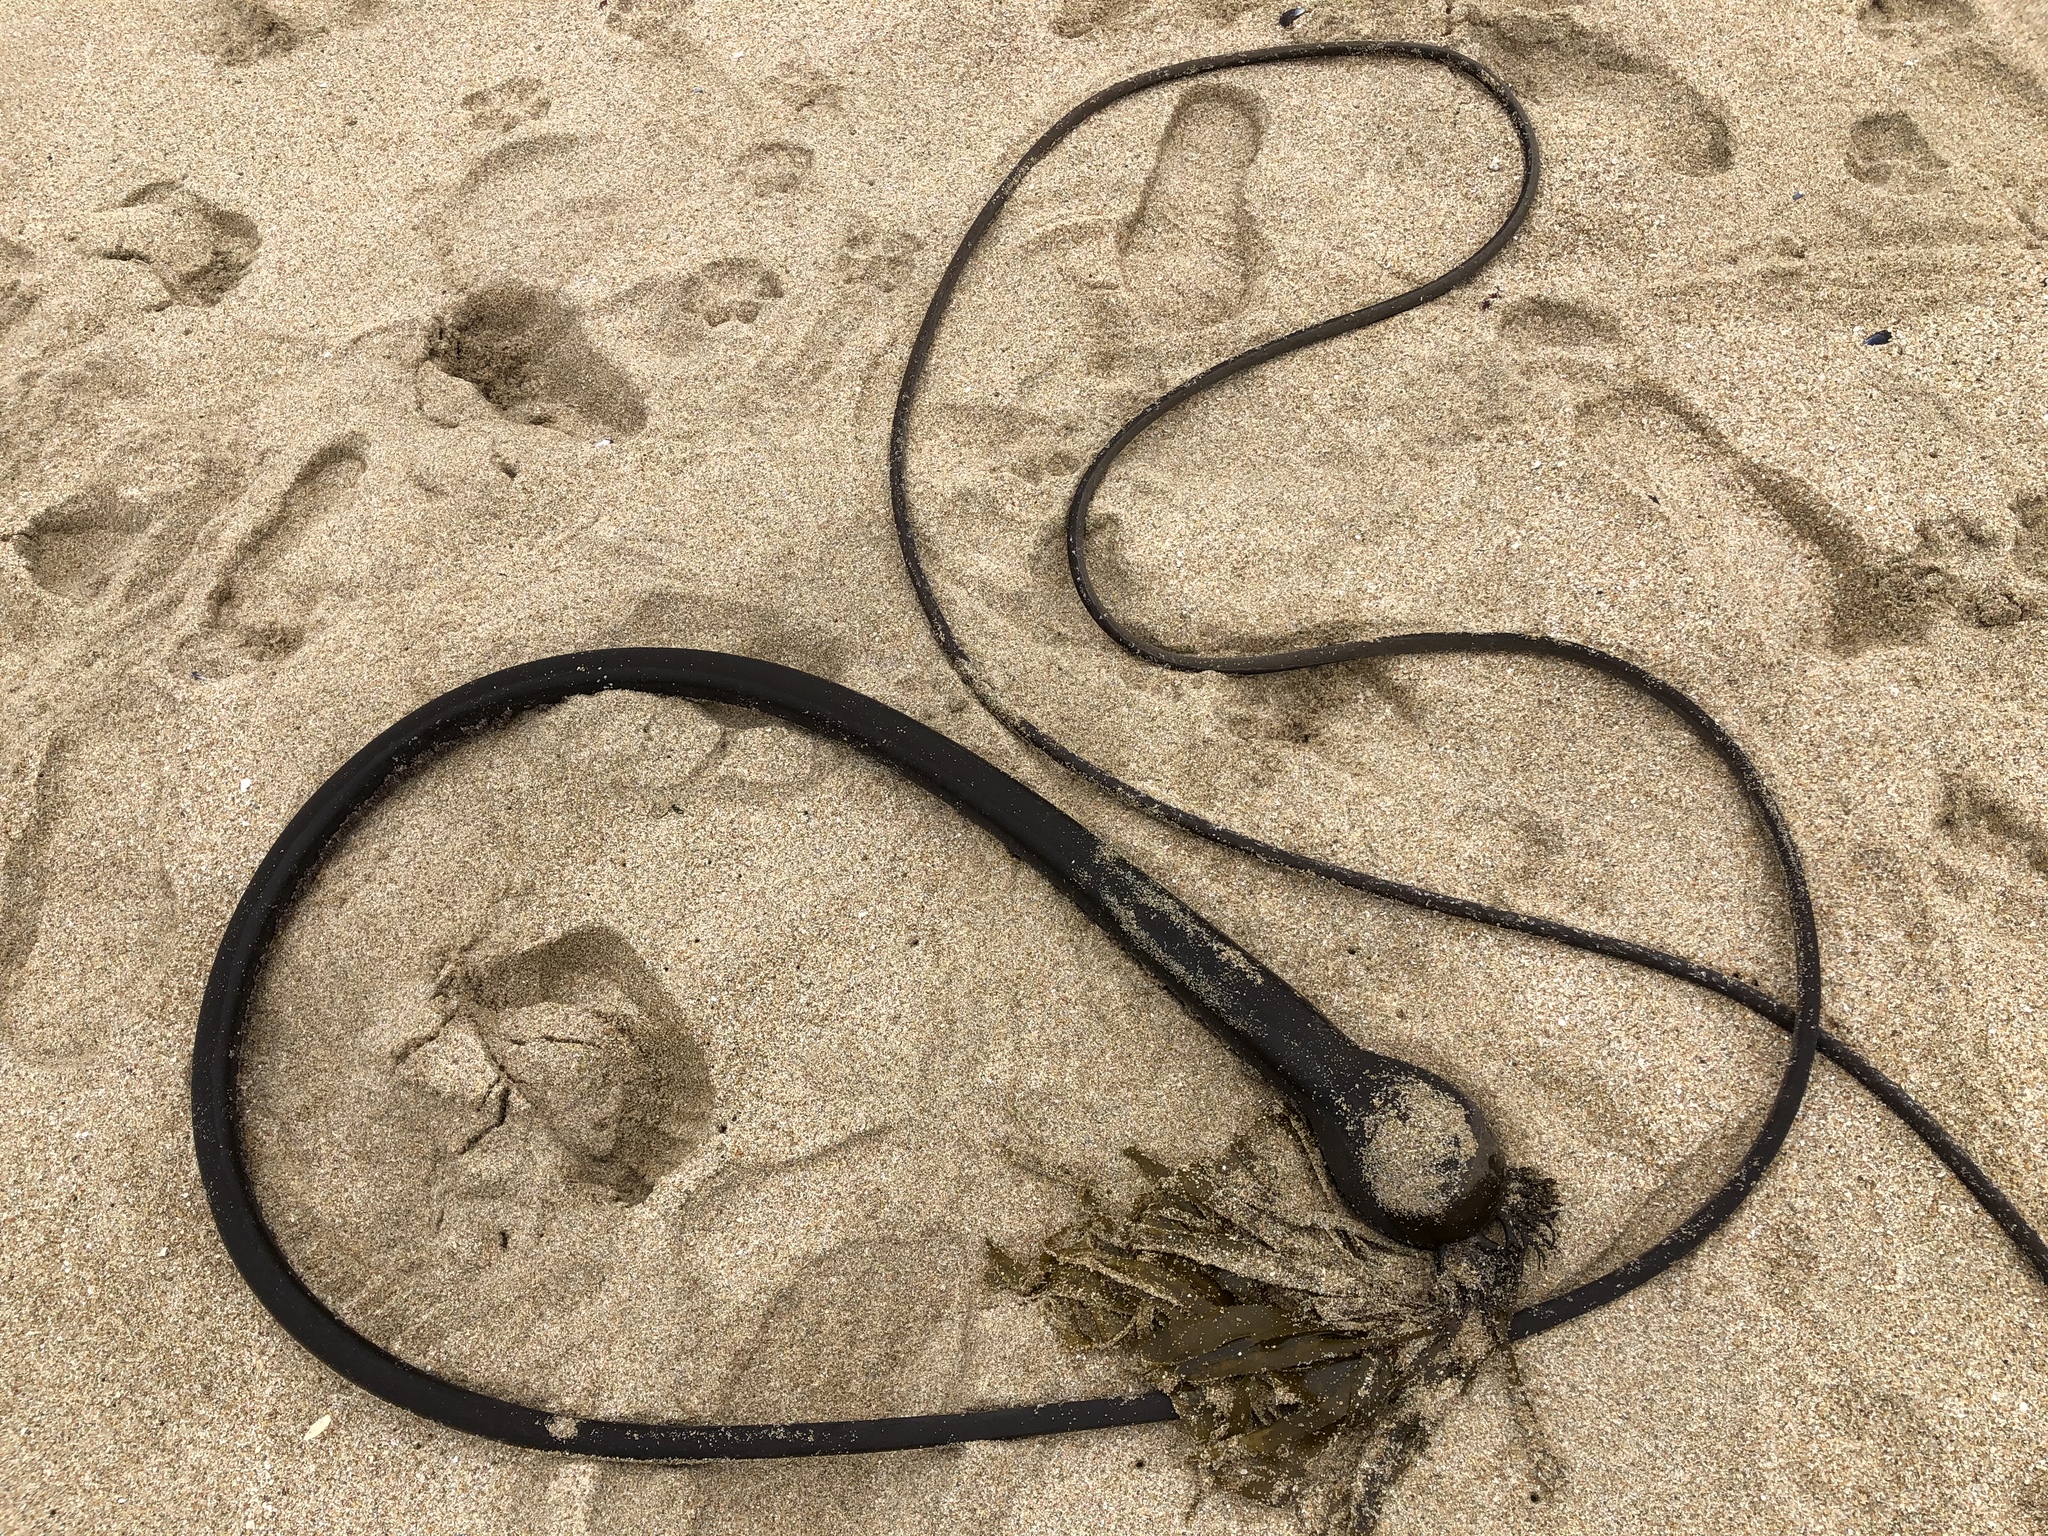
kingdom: Chromista
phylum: Ochrophyta
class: Phaeophyceae
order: Laminariales
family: Laminariaceae
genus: Nereocystis
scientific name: Nereocystis luetkeana
